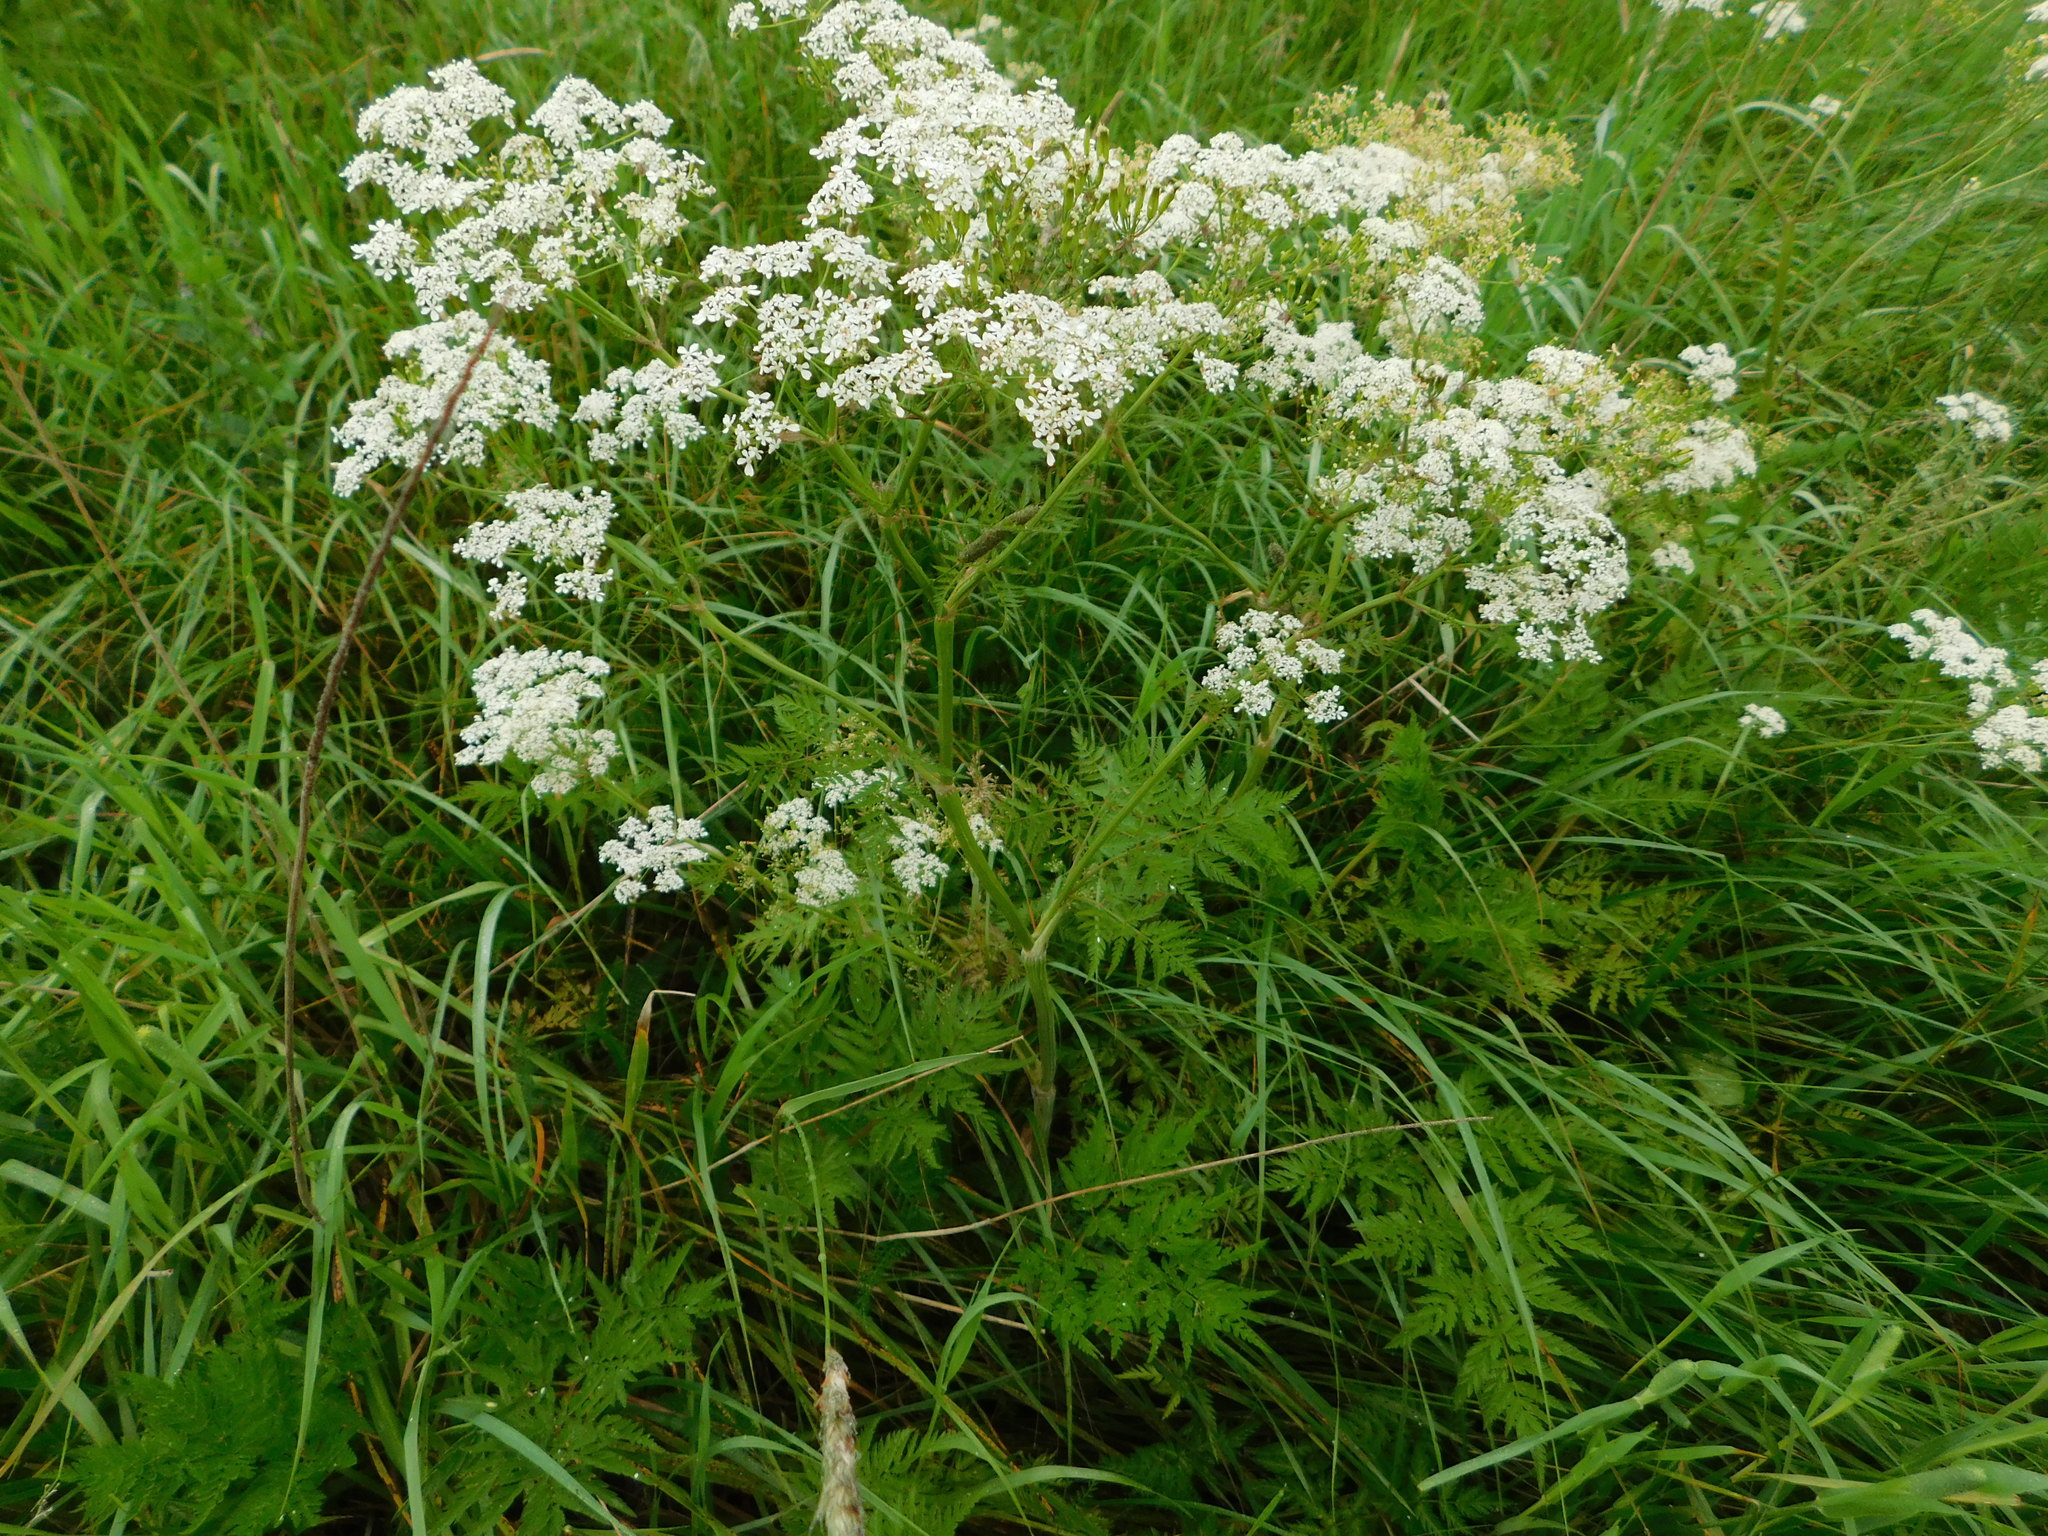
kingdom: Plantae
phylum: Tracheophyta
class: Magnoliopsida
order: Apiales
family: Apiaceae
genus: Anthriscus
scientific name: Anthriscus sylvestris
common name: Cow parsley
